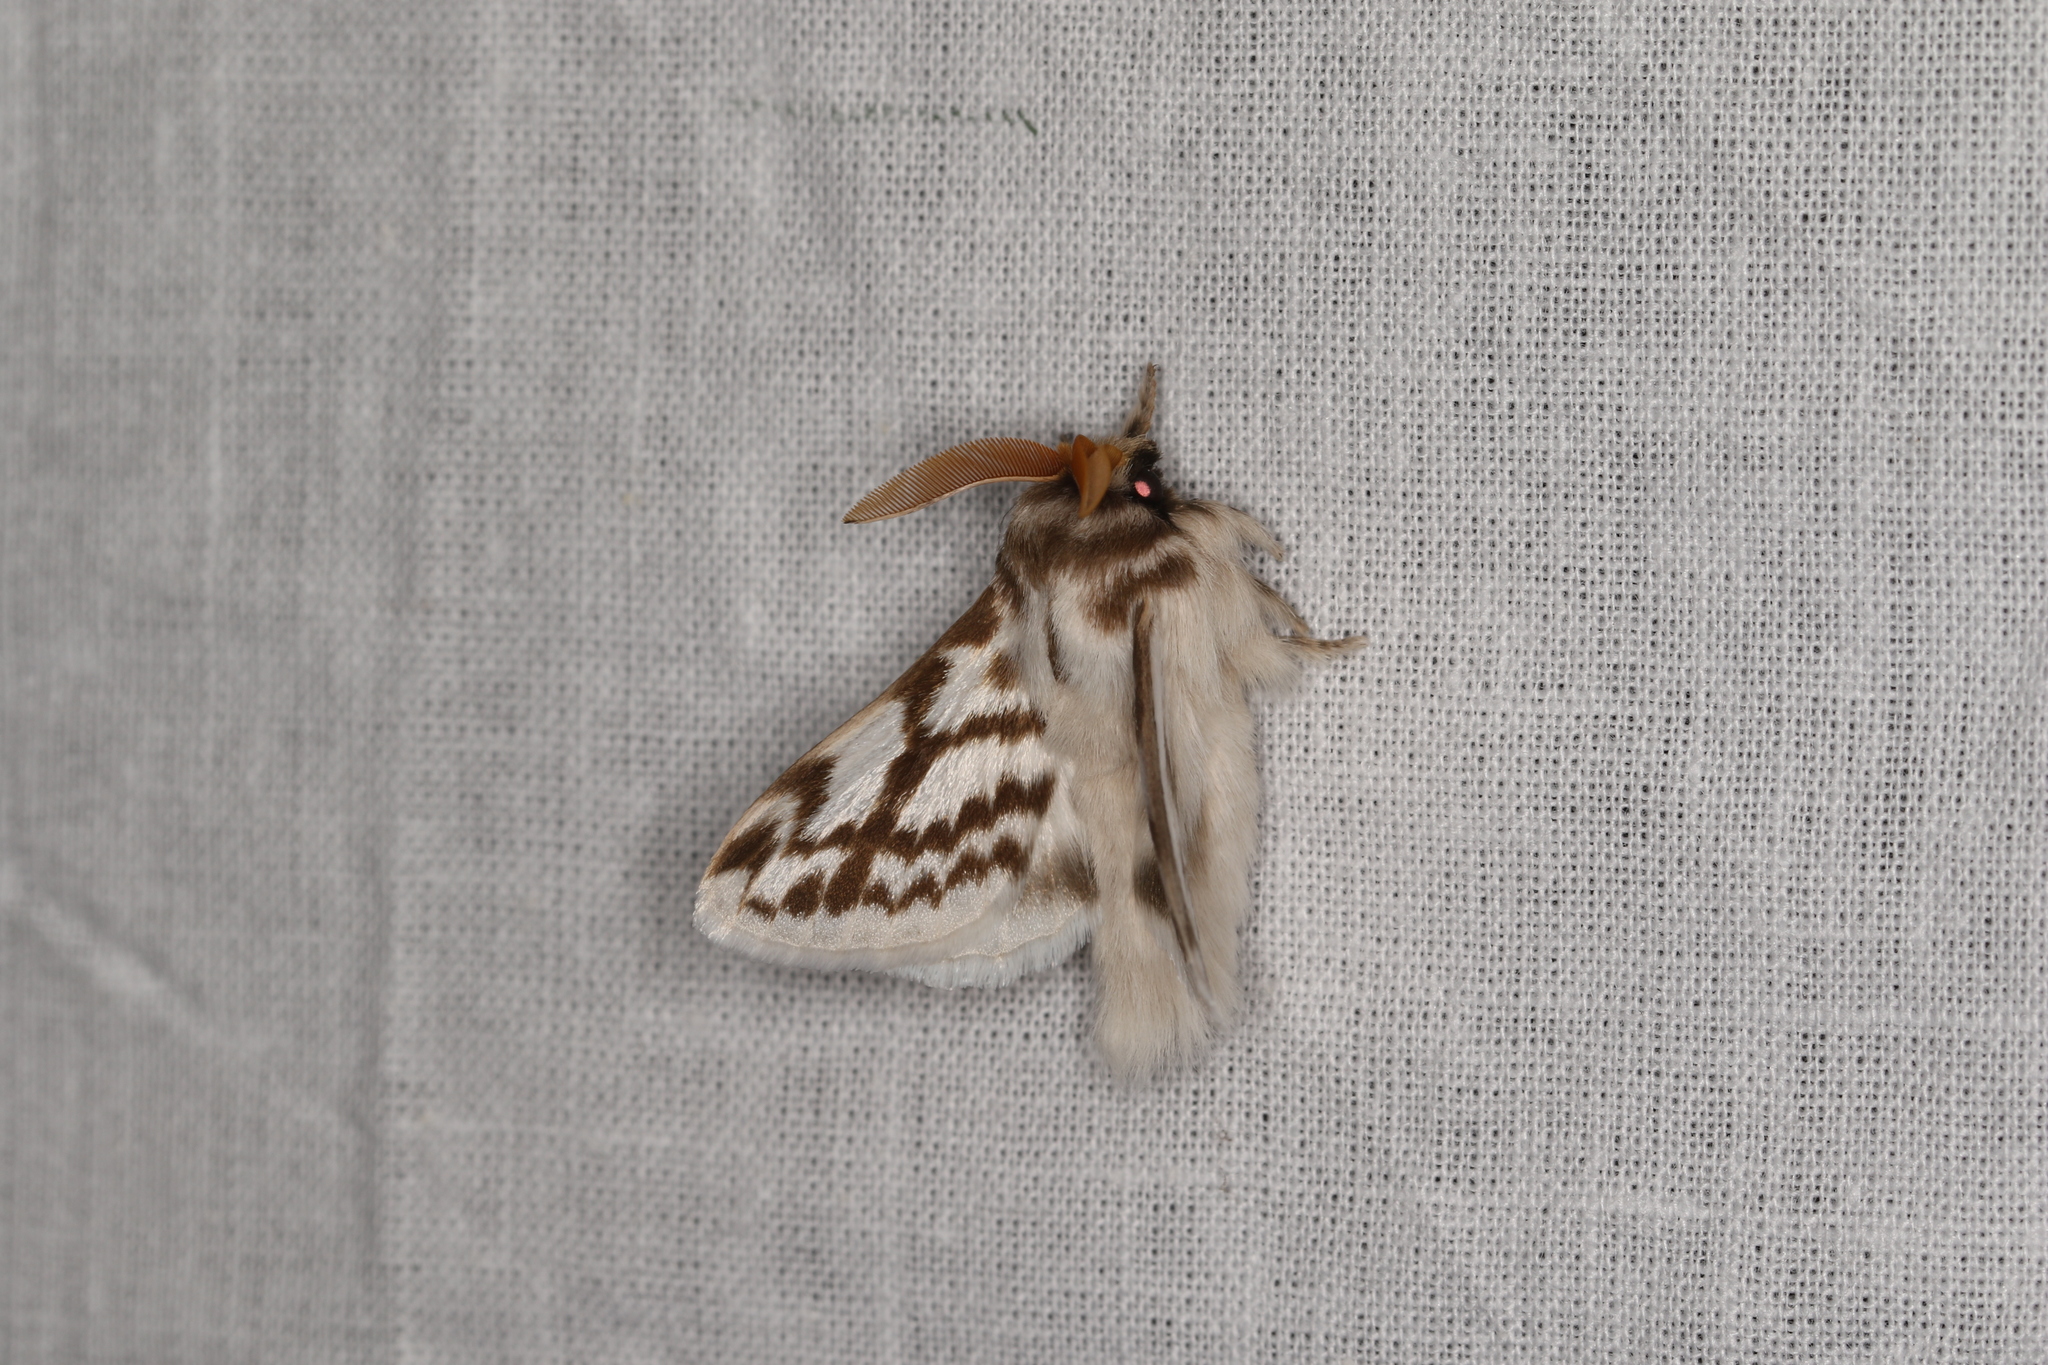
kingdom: Animalia
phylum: Arthropoda
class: Insecta
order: Lepidoptera
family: Lasiocampidae
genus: Pernattia
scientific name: Pernattia chlorophragma
